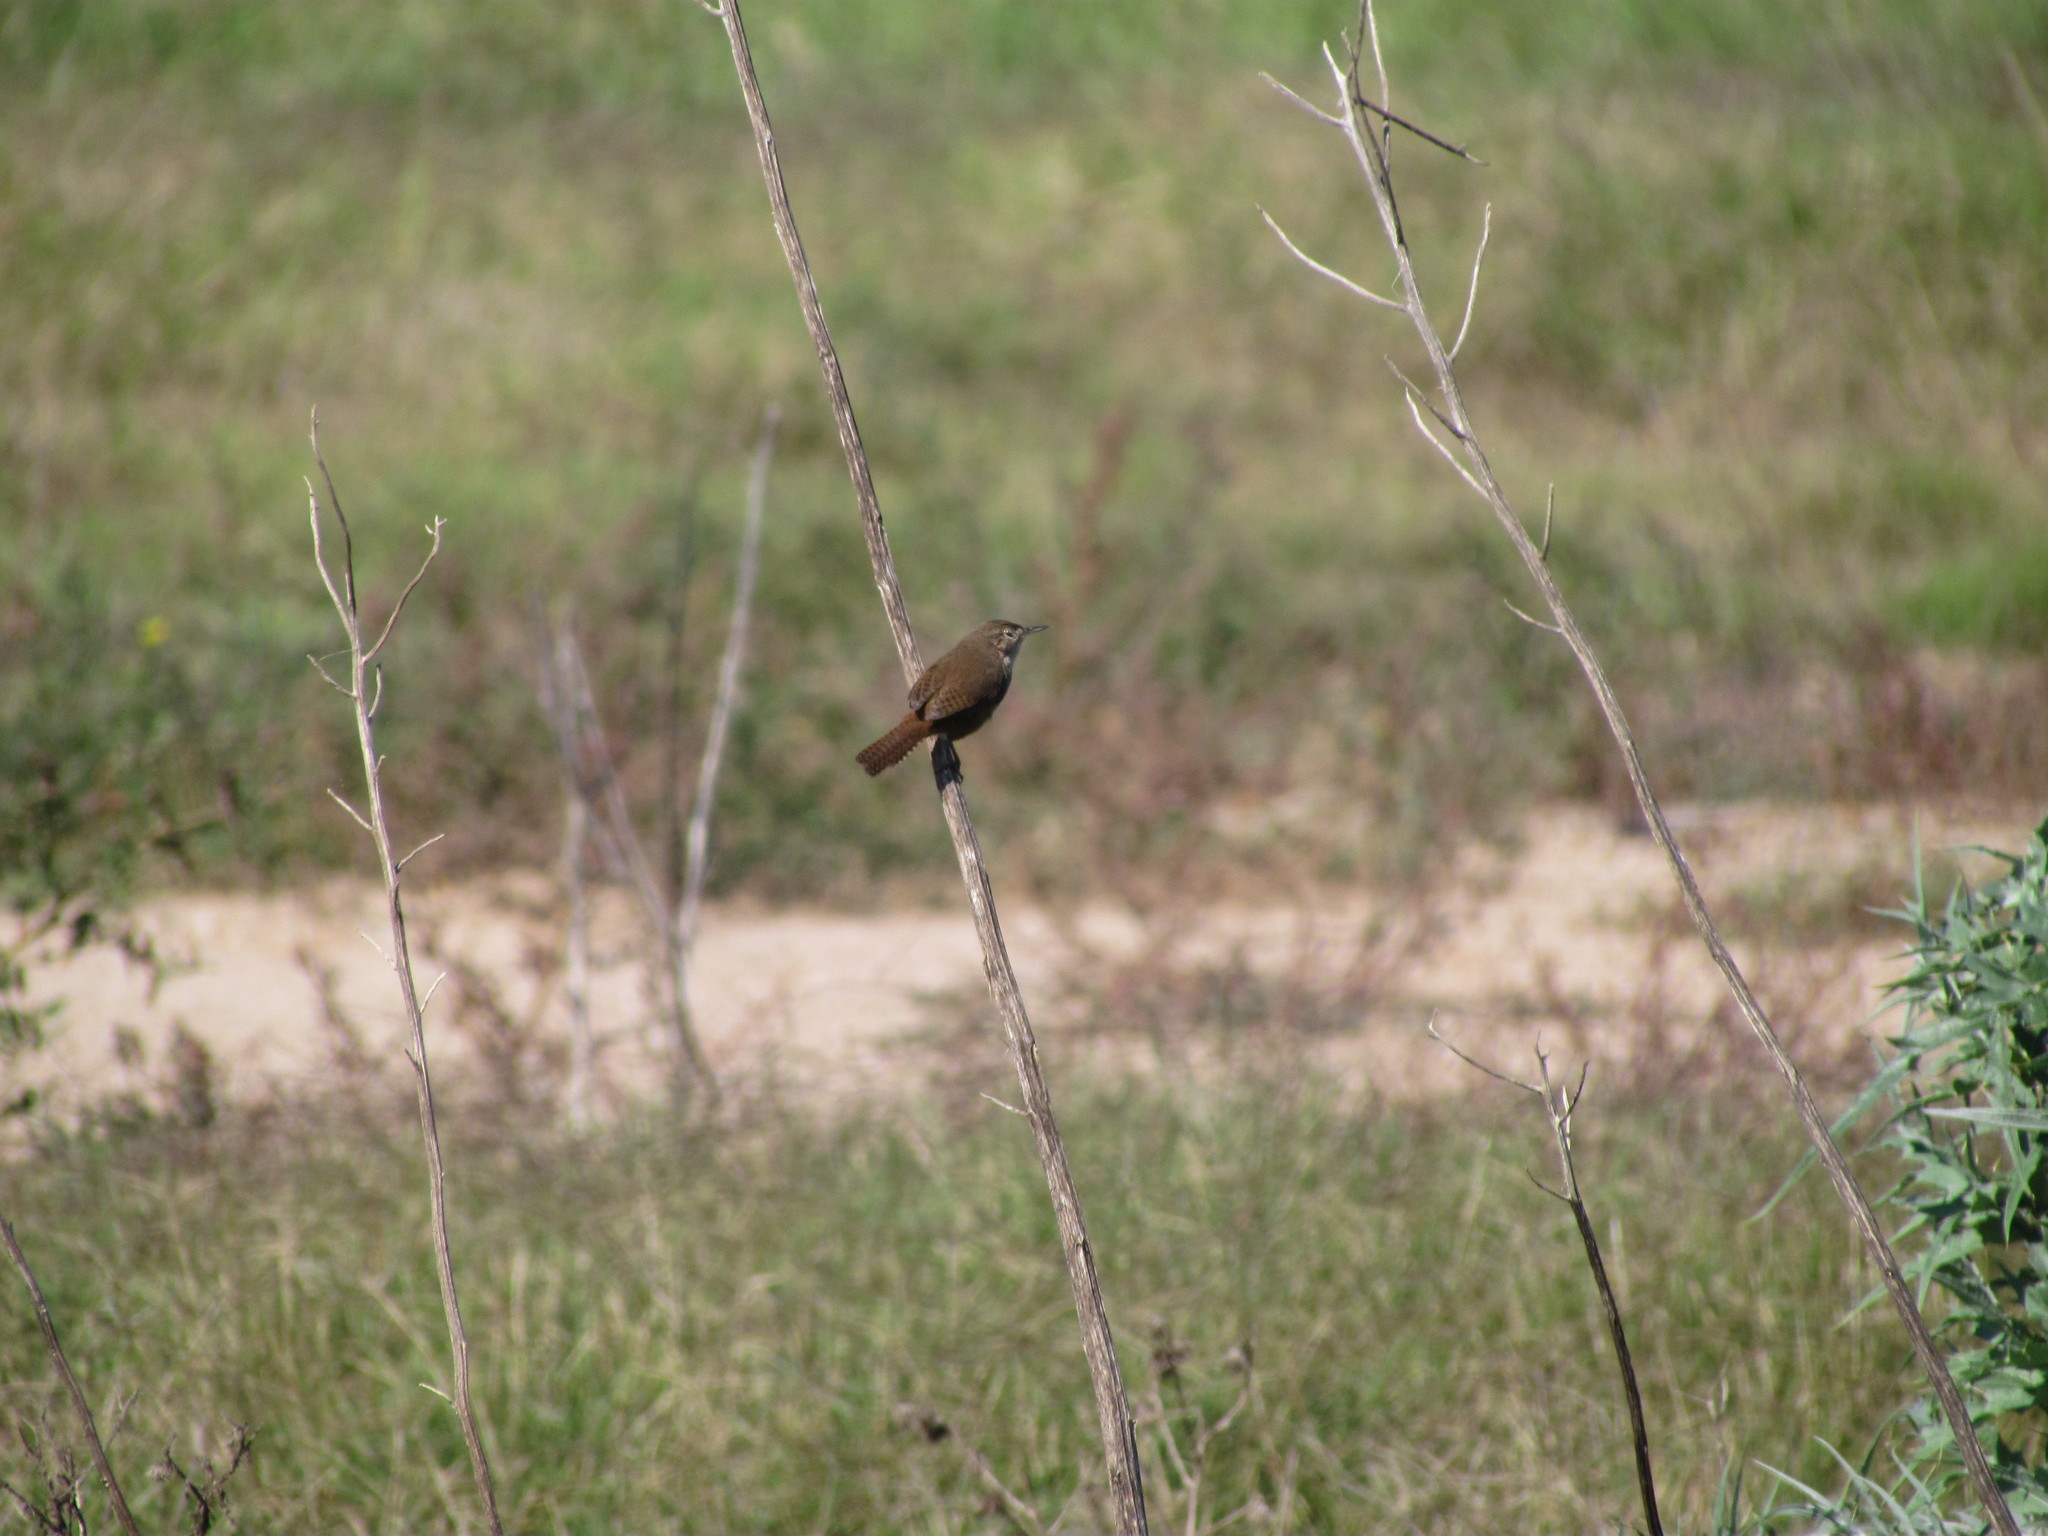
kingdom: Animalia
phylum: Chordata
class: Aves
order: Passeriformes
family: Troglodytidae
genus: Troglodytes
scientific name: Troglodytes aedon
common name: House wren
